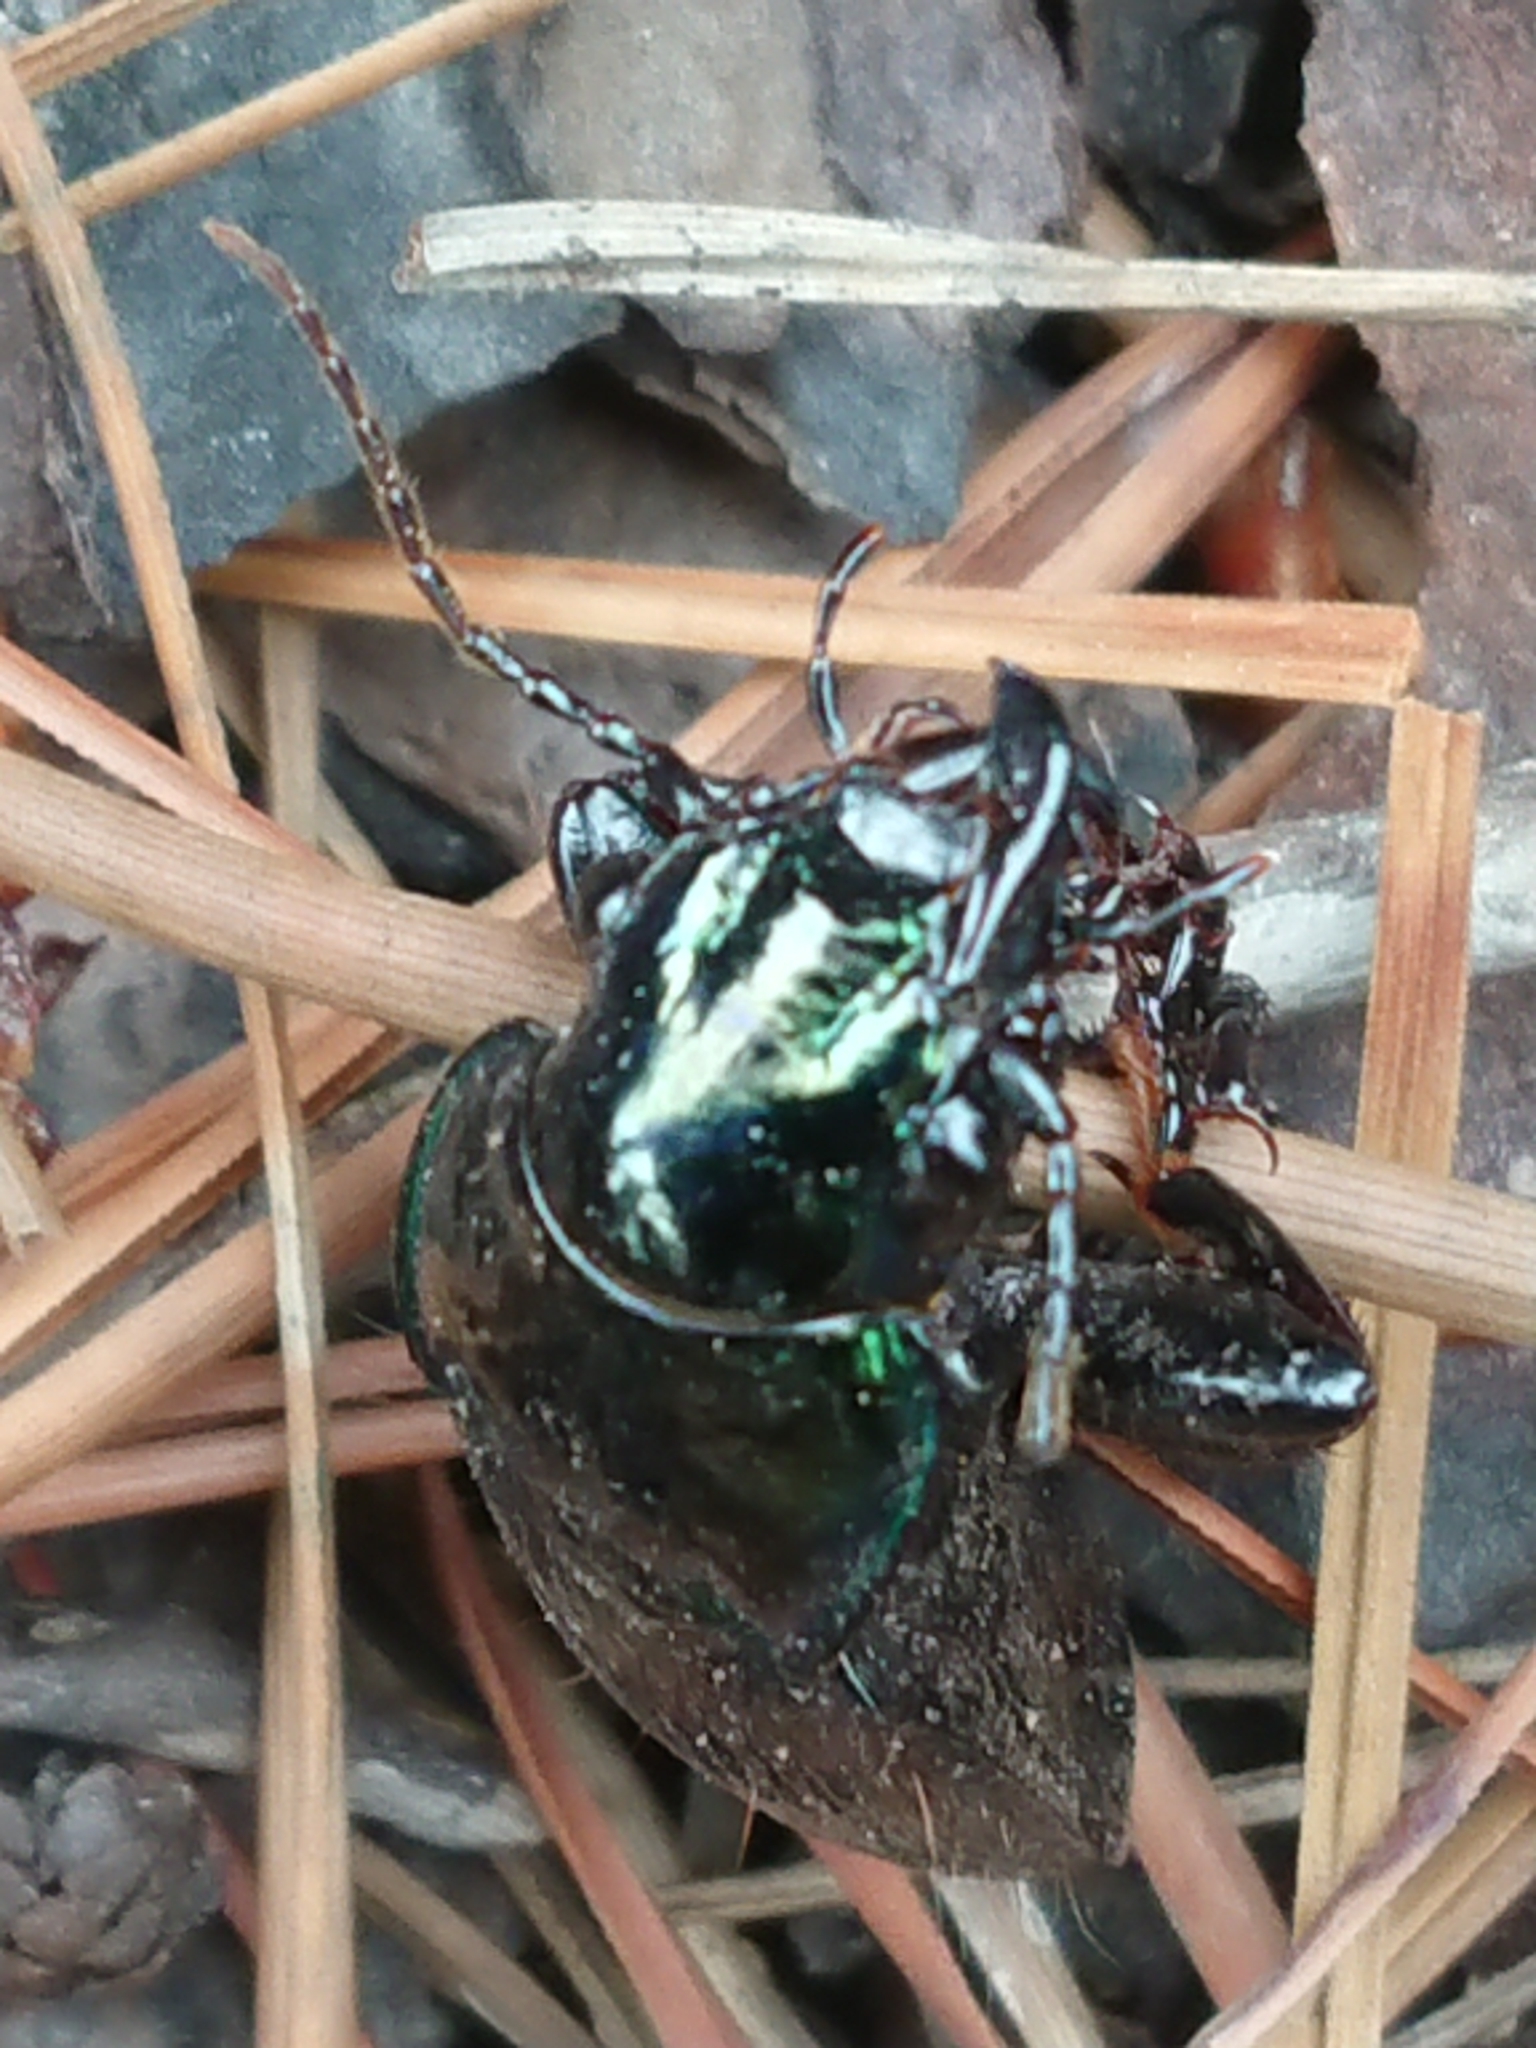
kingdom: Animalia
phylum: Arthropoda
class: Insecta
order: Coleoptera
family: Carabidae
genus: Megadromus
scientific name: Megadromus antarcticus
